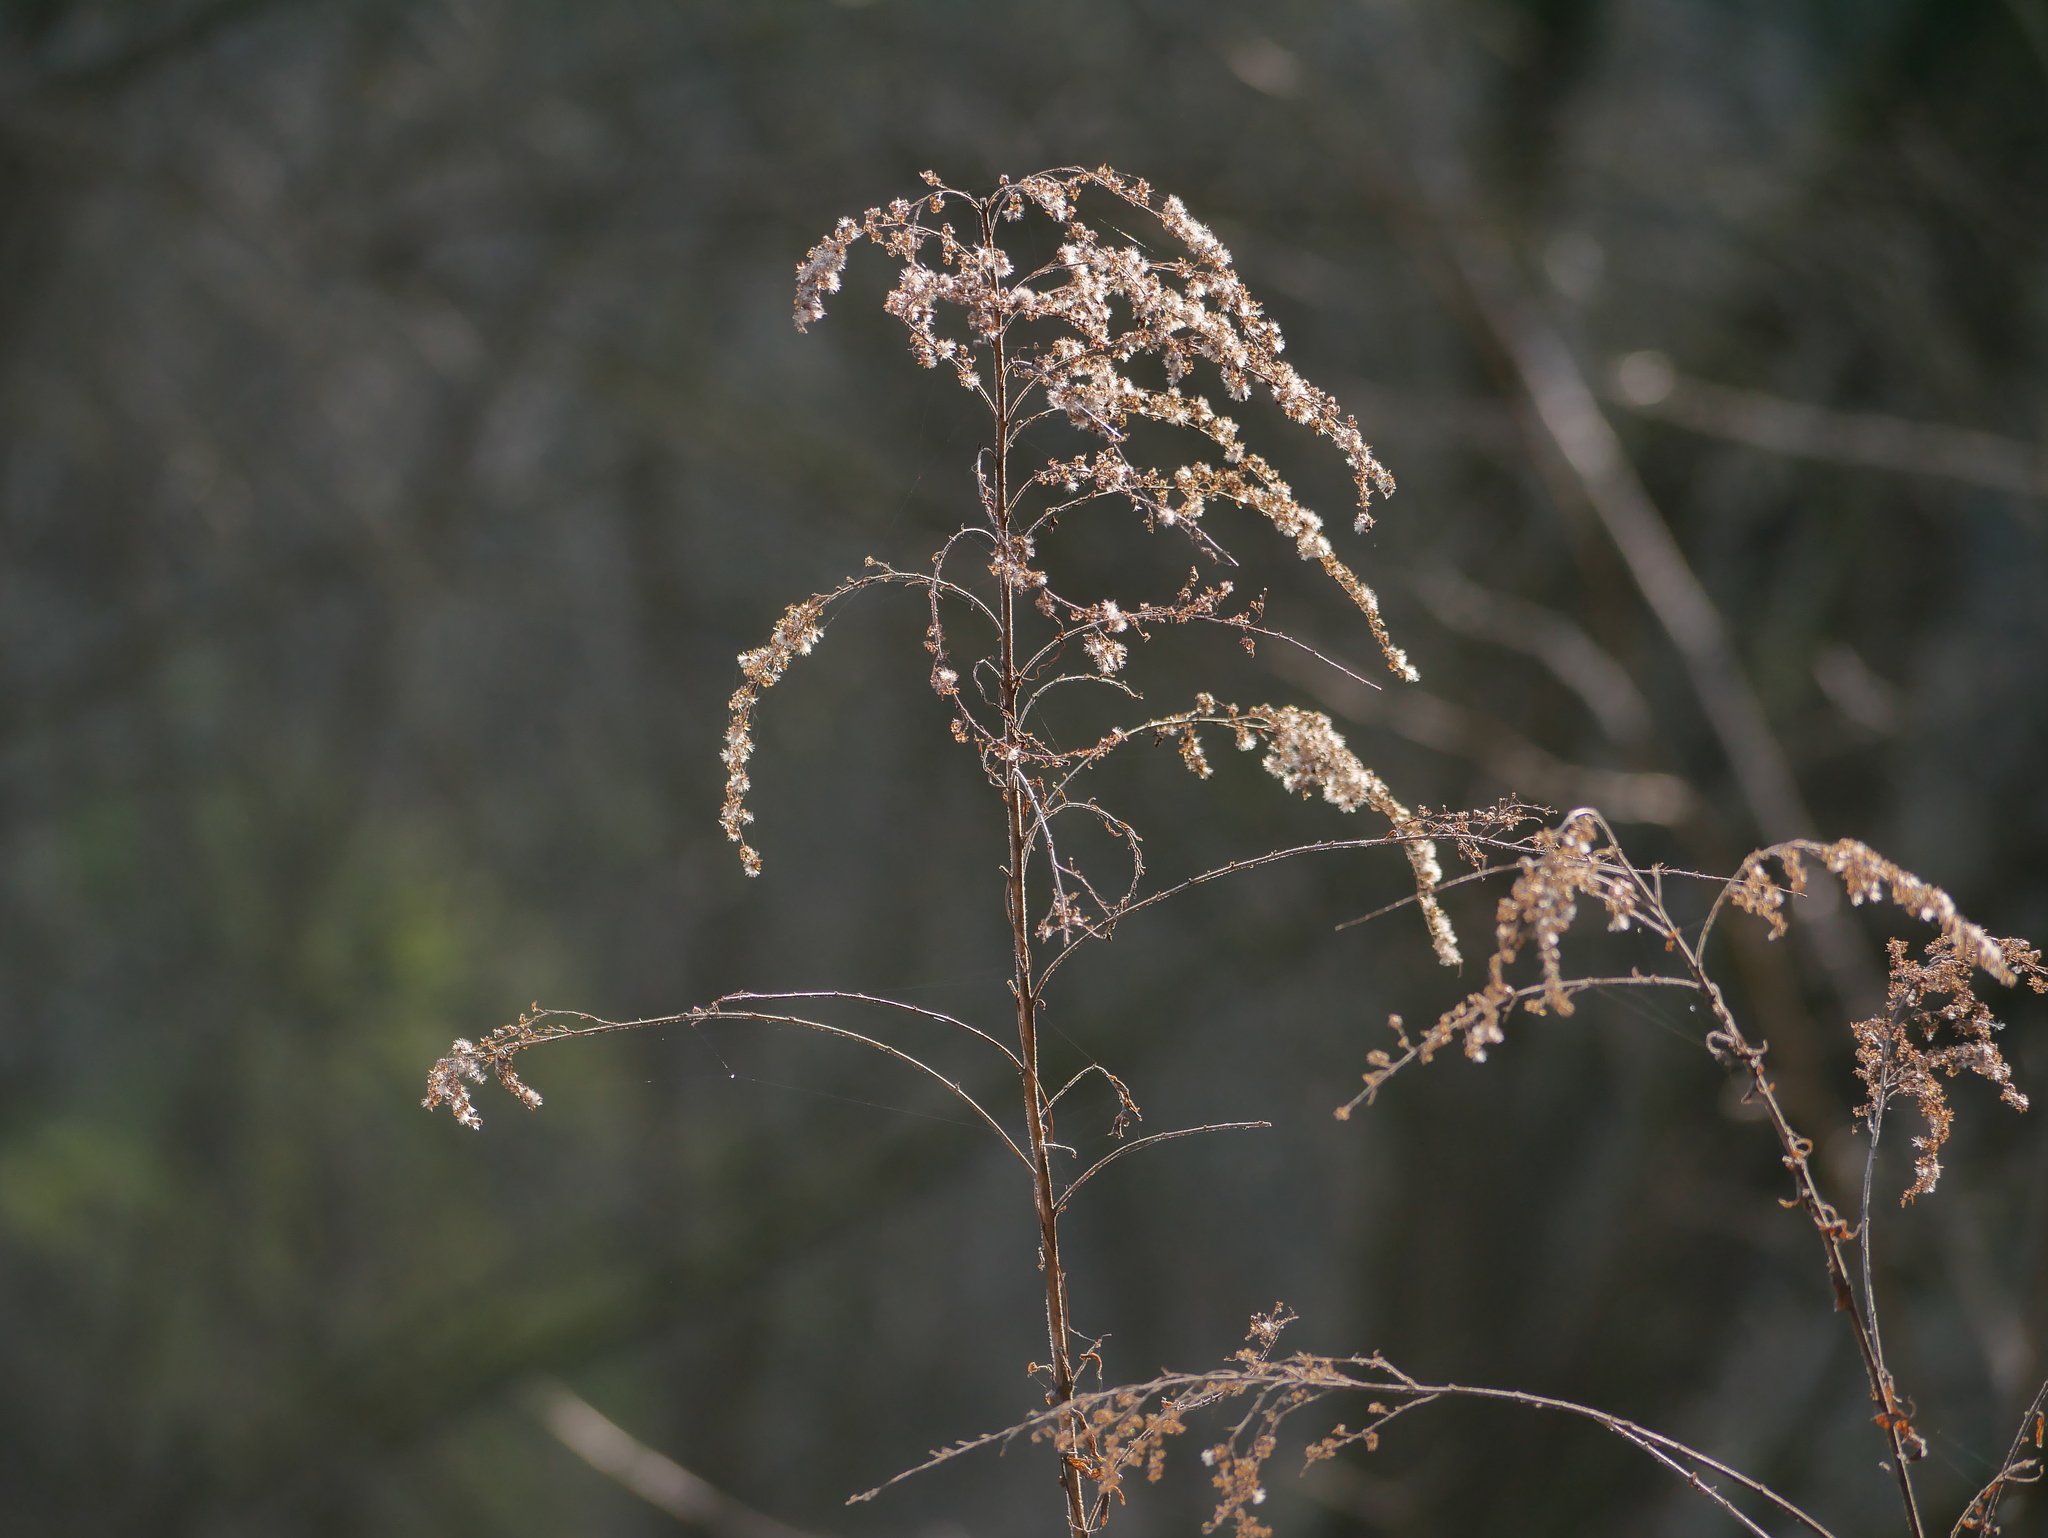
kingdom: Plantae
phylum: Tracheophyta
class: Magnoliopsida
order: Asterales
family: Asteraceae
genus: Solidago
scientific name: Solidago canadensis
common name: Canada goldenrod
